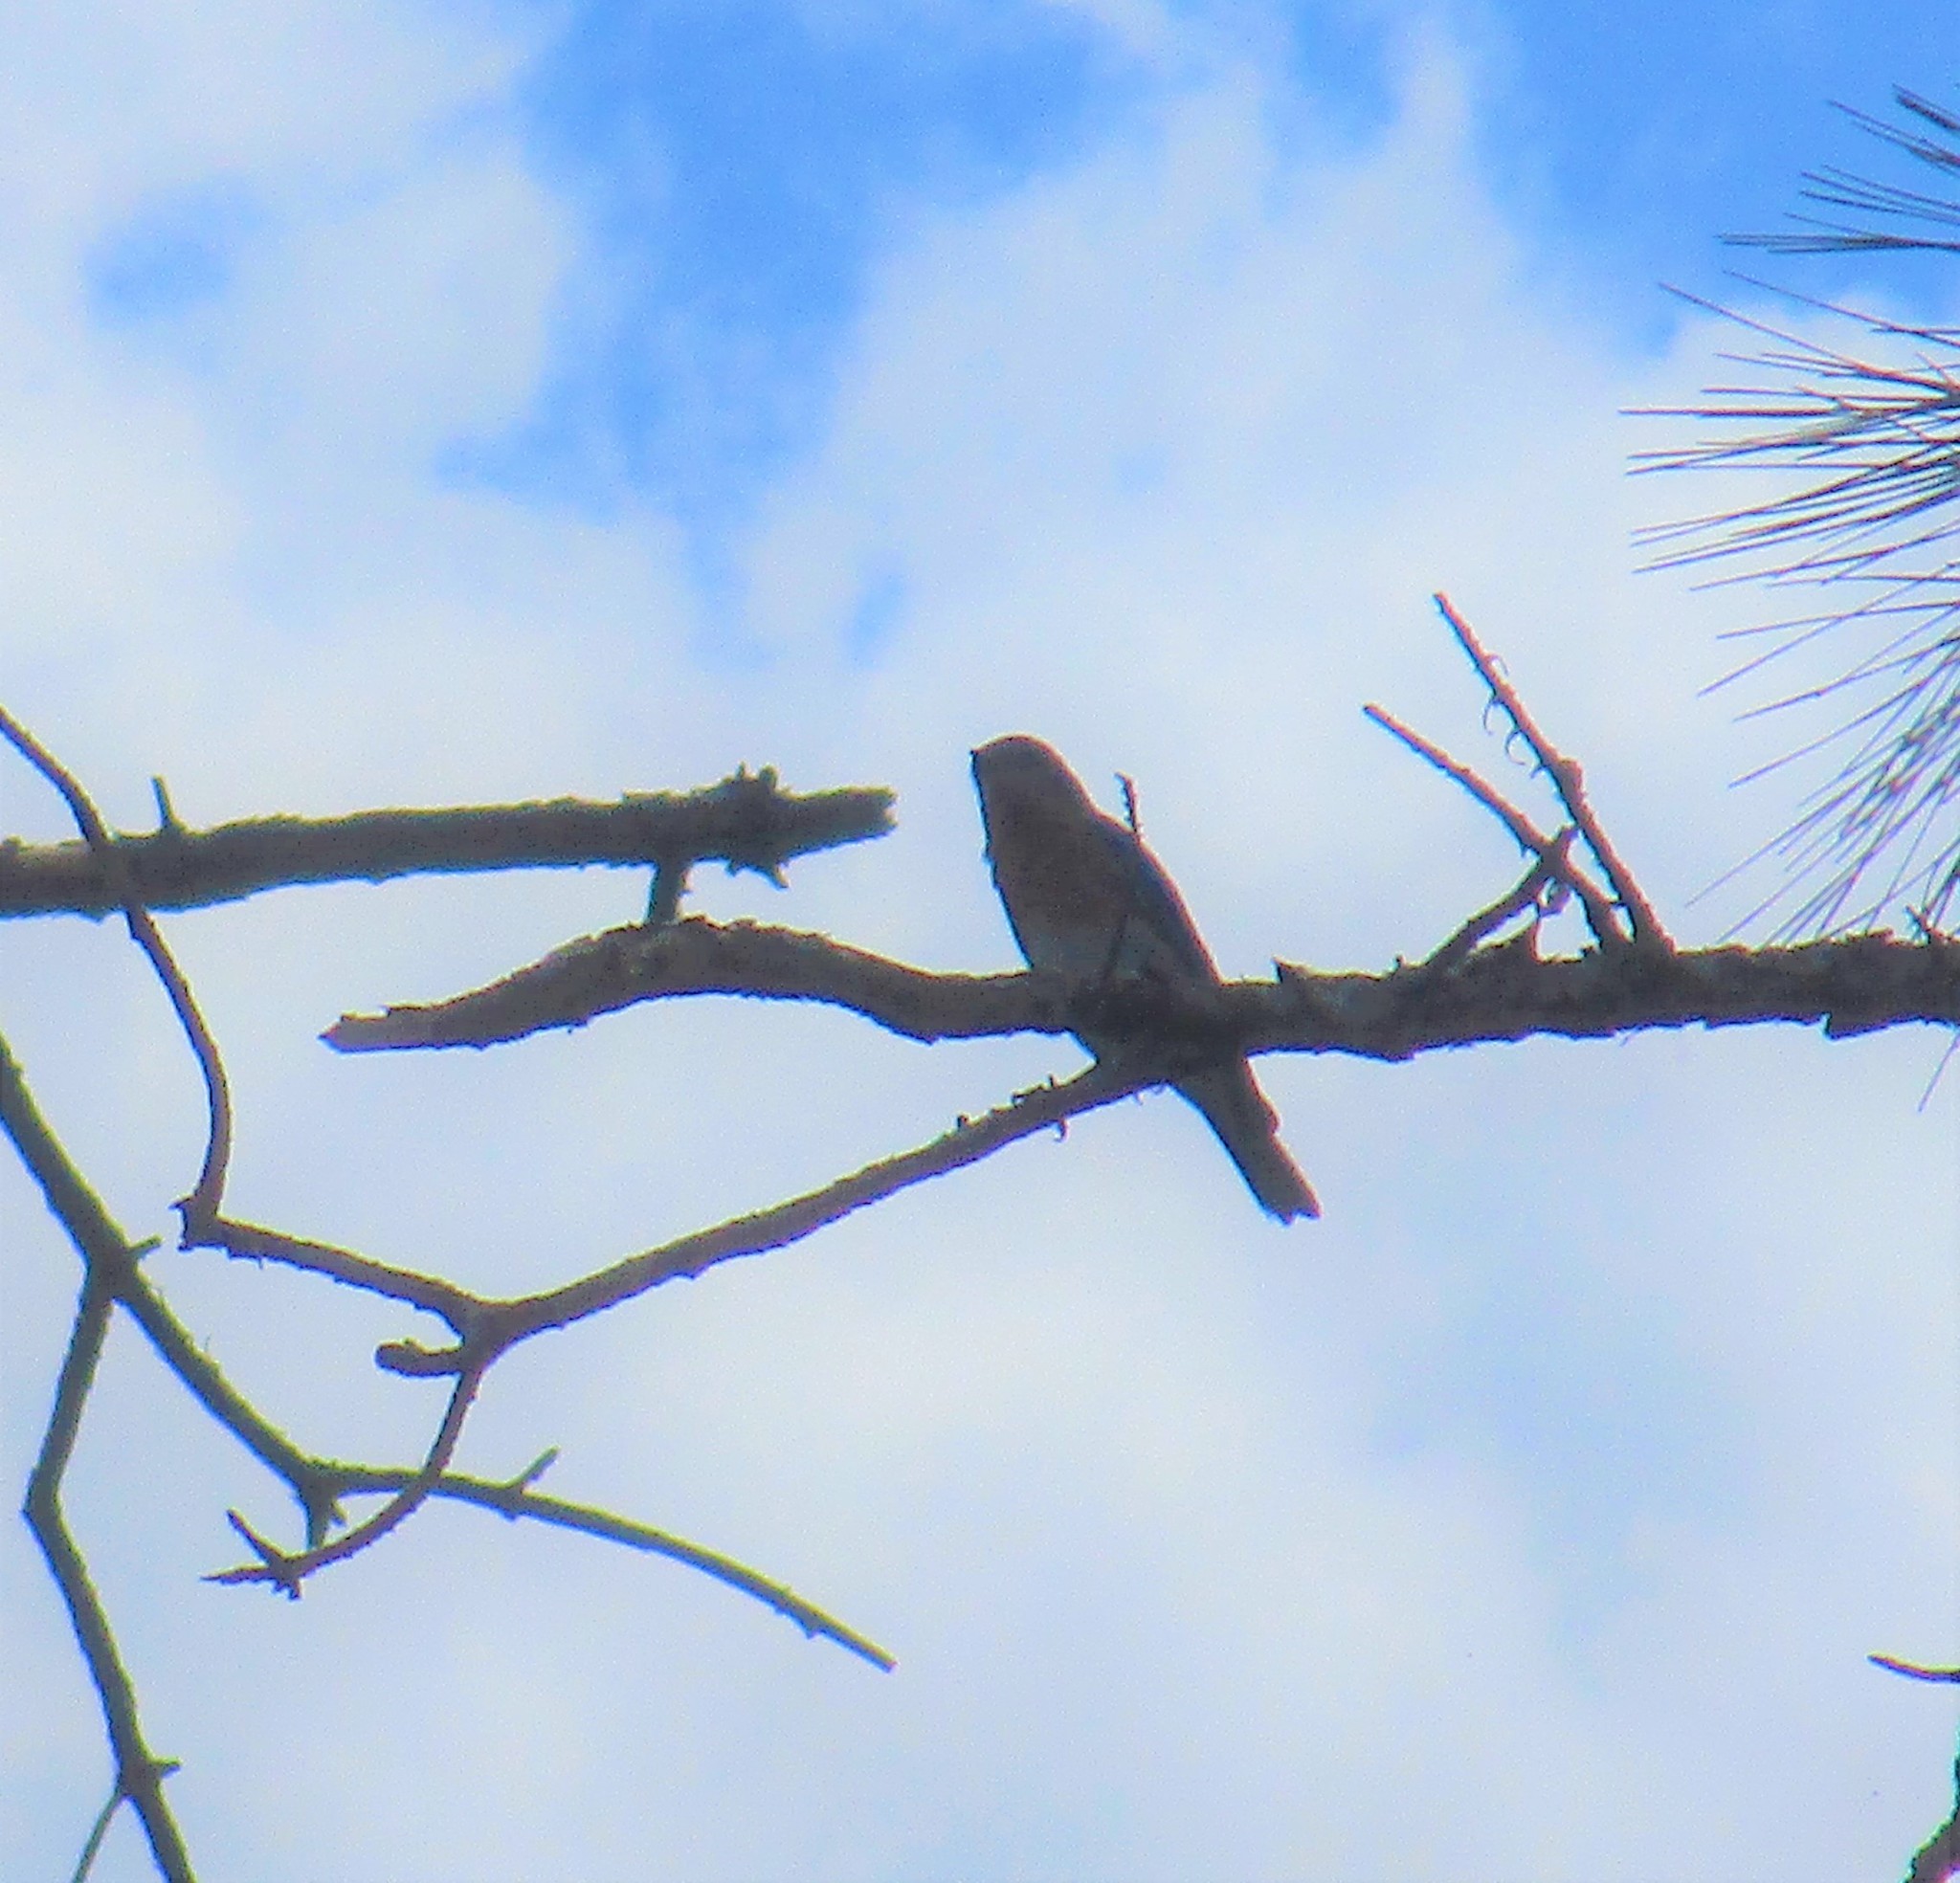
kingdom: Animalia
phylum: Chordata
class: Aves
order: Passeriformes
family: Turdidae
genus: Sialia
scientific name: Sialia sialis
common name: Eastern bluebird
